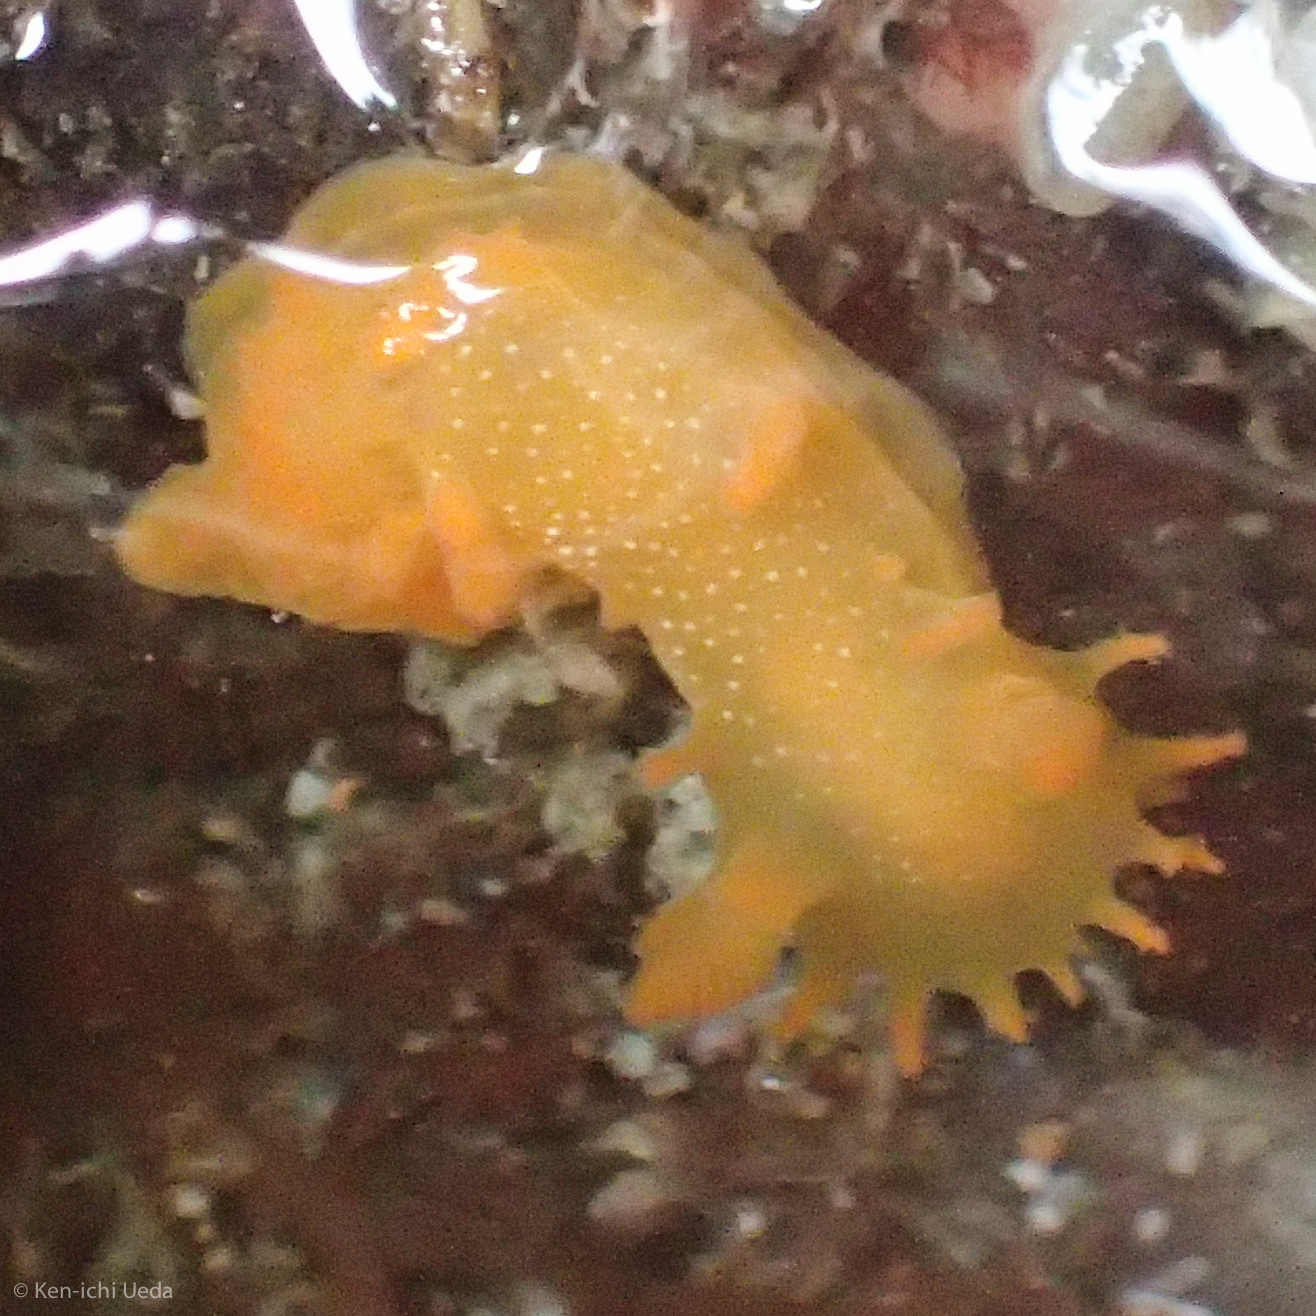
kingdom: Animalia
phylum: Mollusca
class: Gastropoda
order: Nudibranchia
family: Polyceridae
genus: Triopha
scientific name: Triopha maculata
